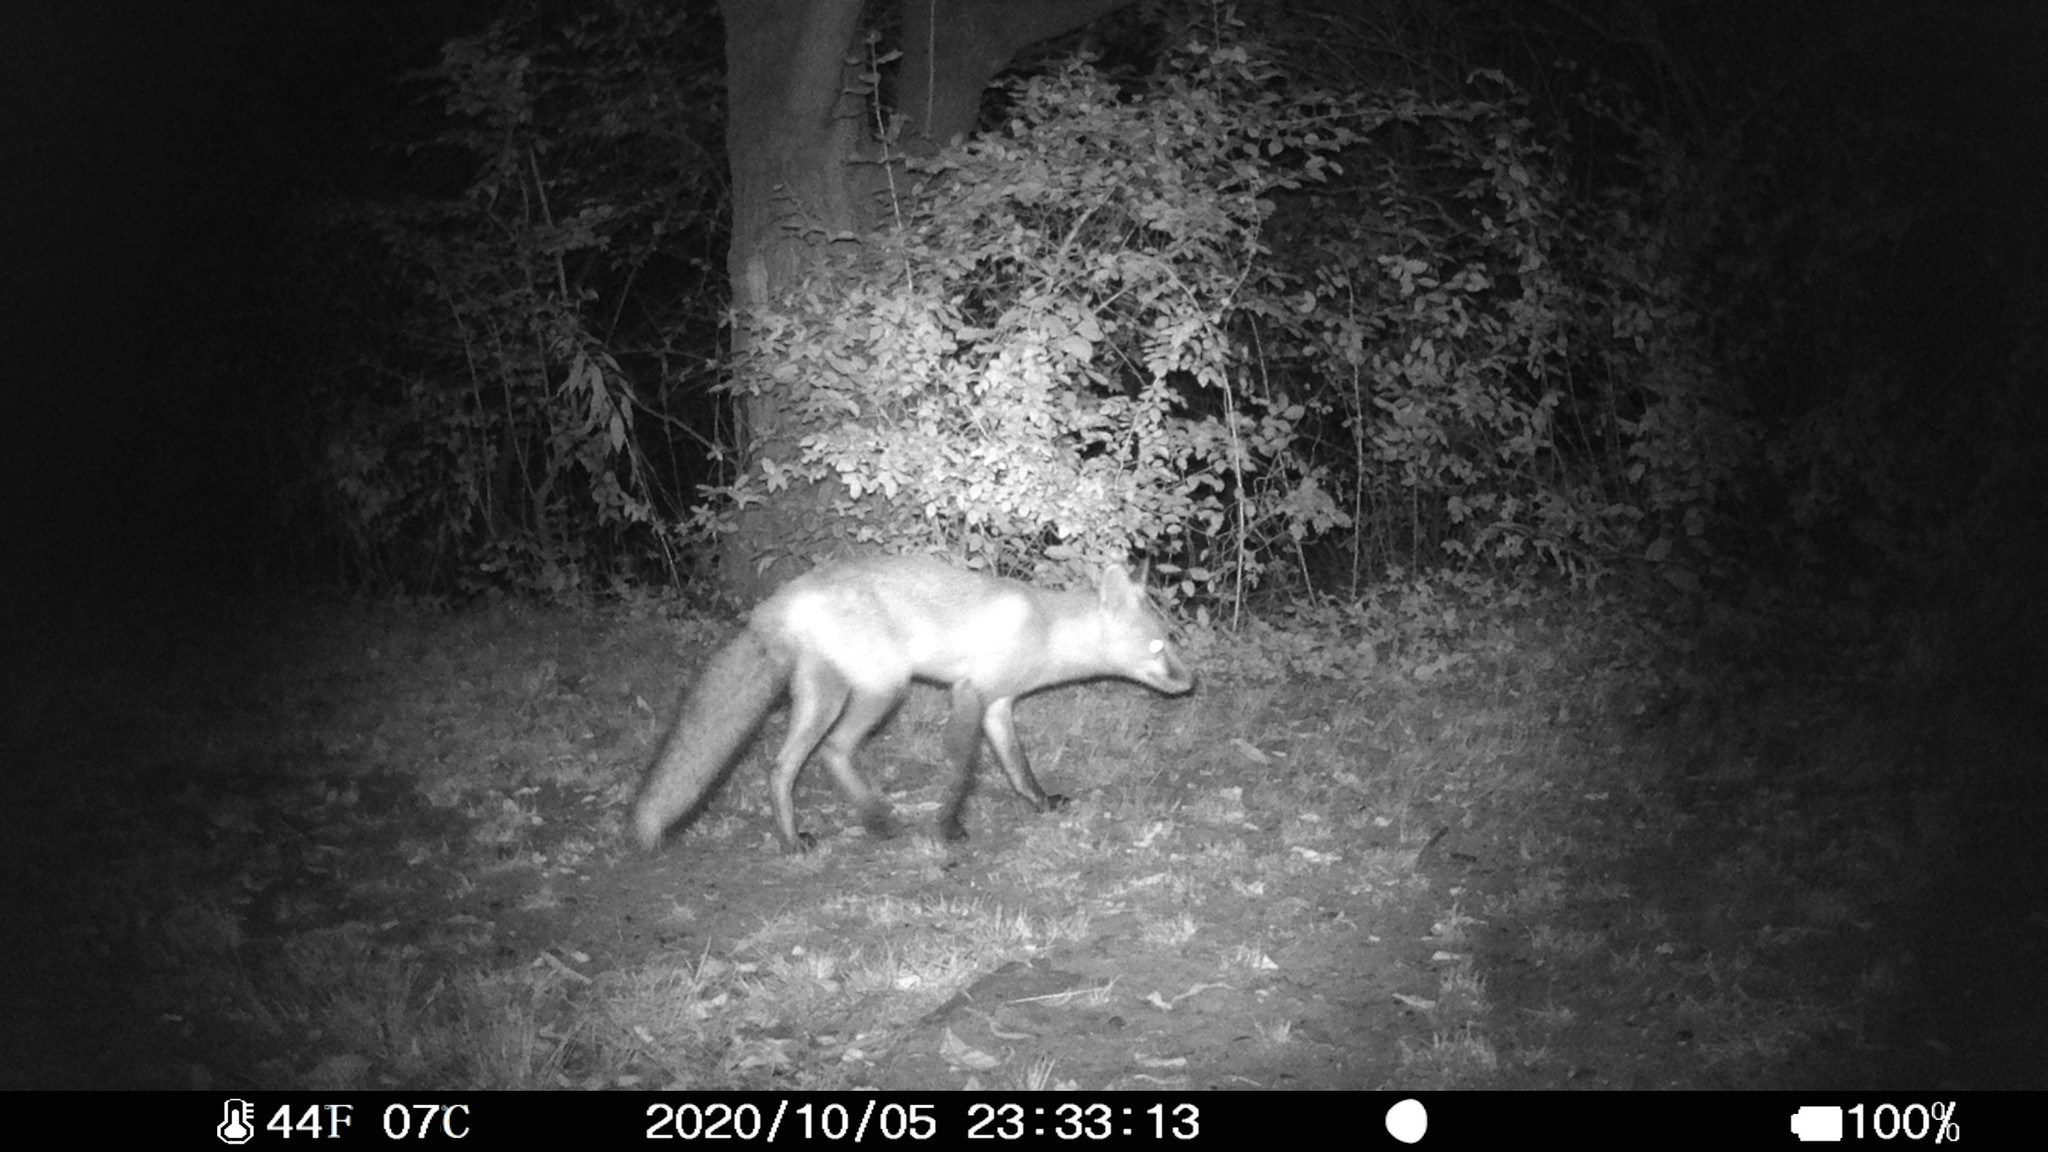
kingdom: Animalia
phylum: Chordata
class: Mammalia
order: Carnivora
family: Canidae
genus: Vulpes
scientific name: Vulpes vulpes
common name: Red fox
